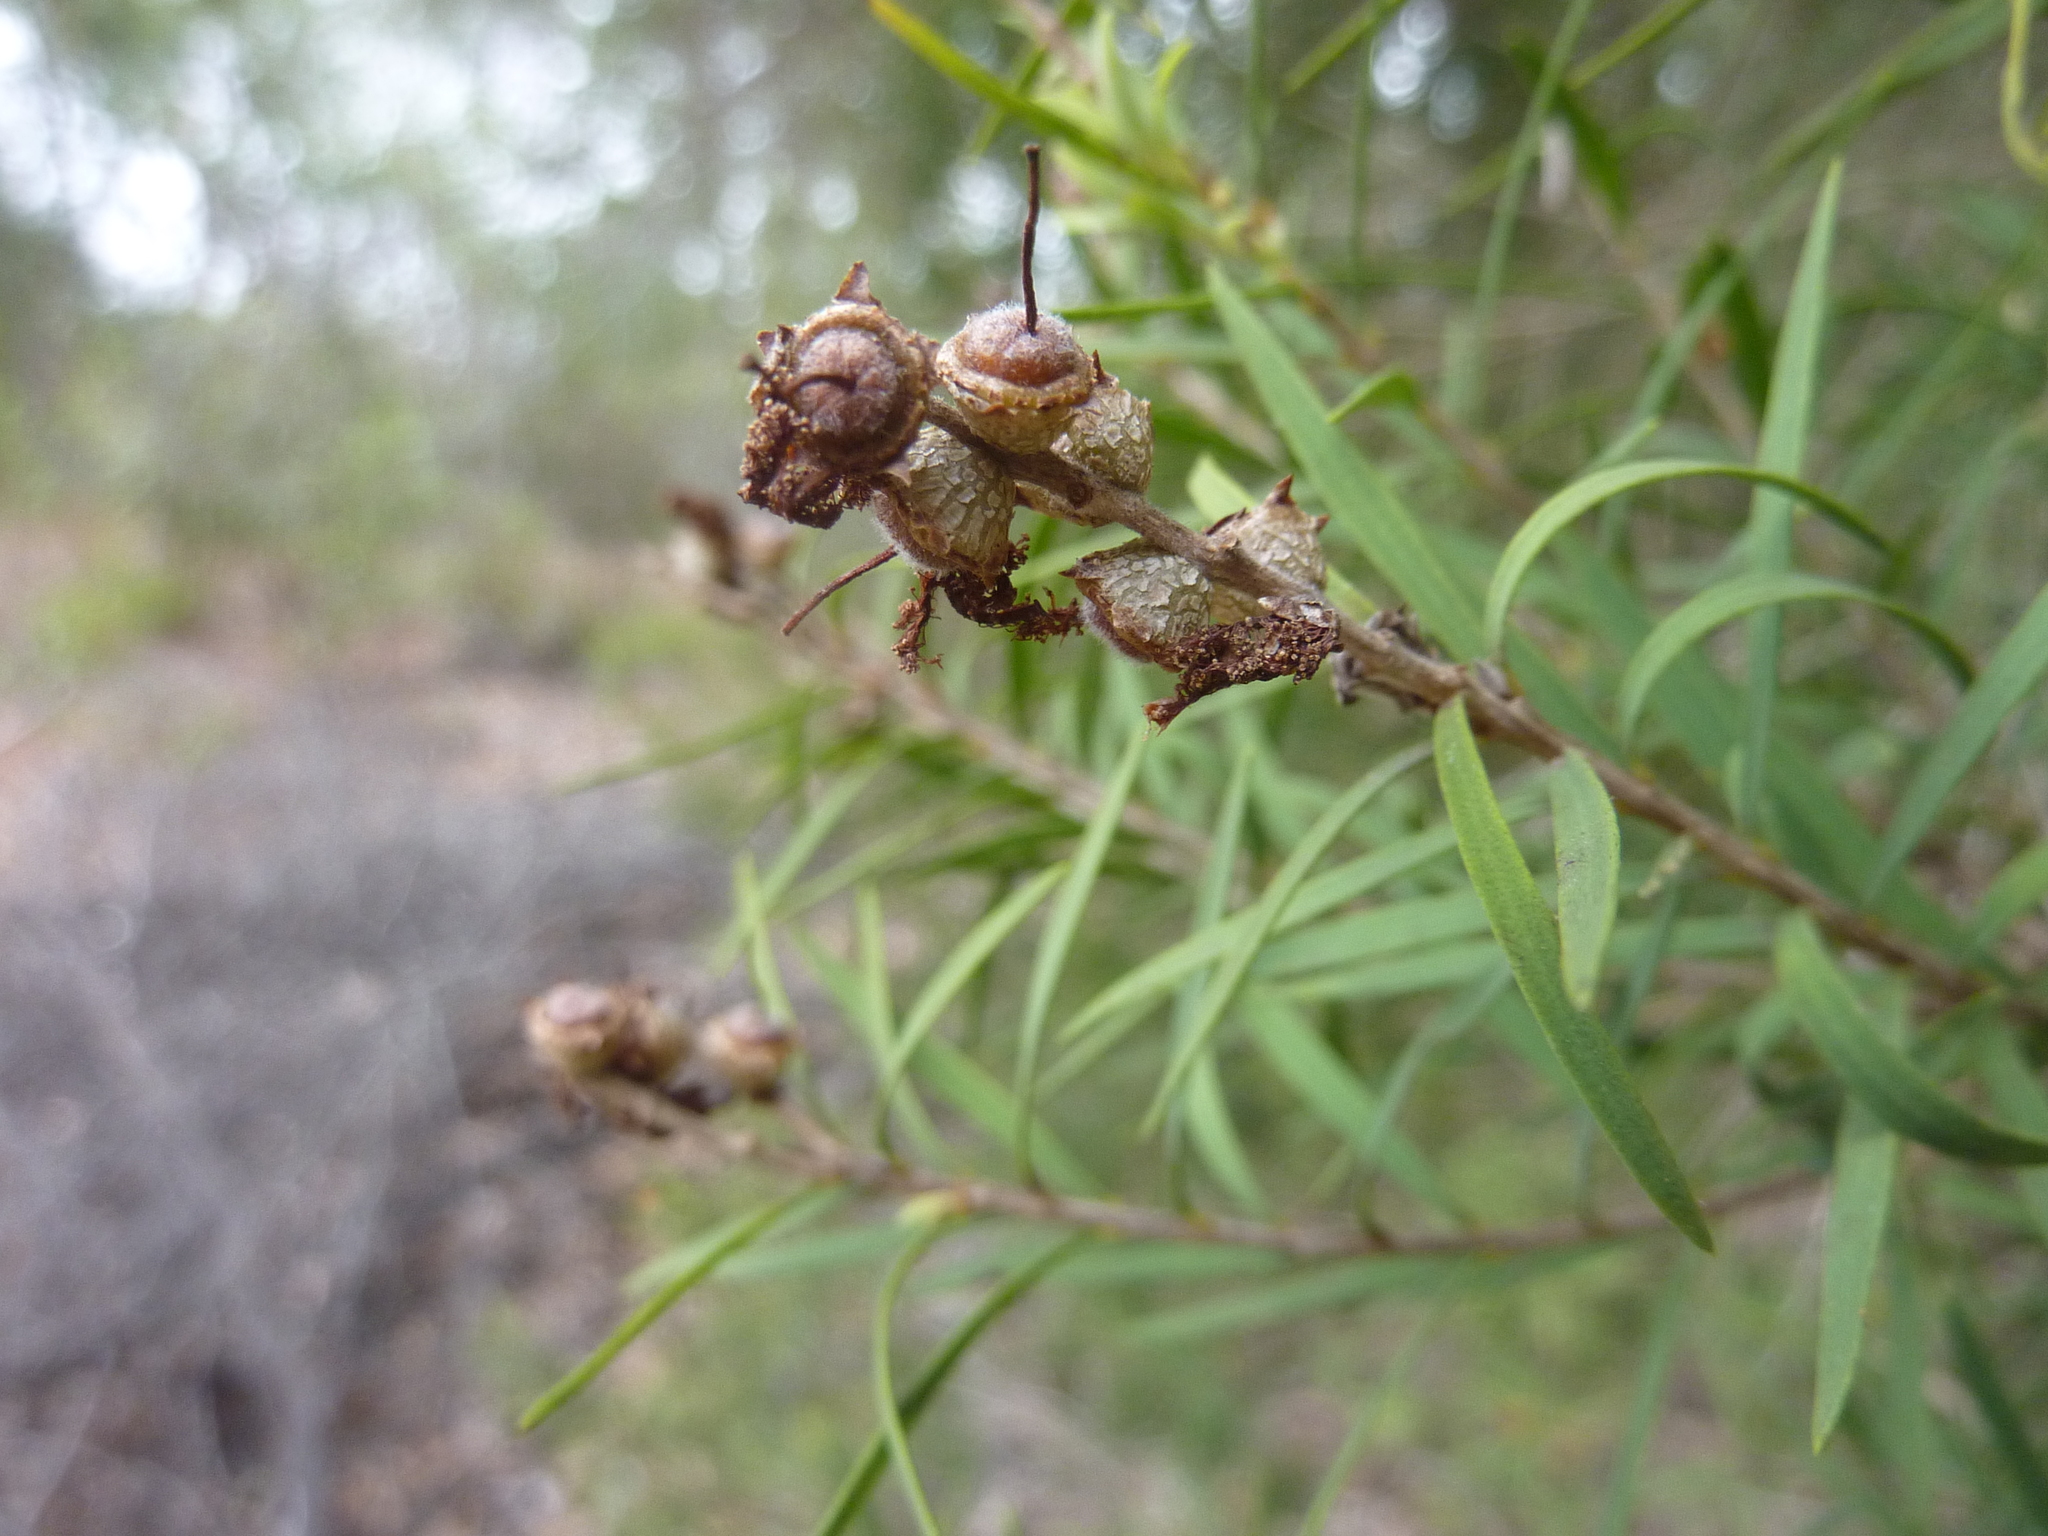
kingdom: Plantae
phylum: Tracheophyta
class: Magnoliopsida
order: Myrtales
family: Myrtaceae
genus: Melaleuca
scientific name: Melaleuca trichostachya
